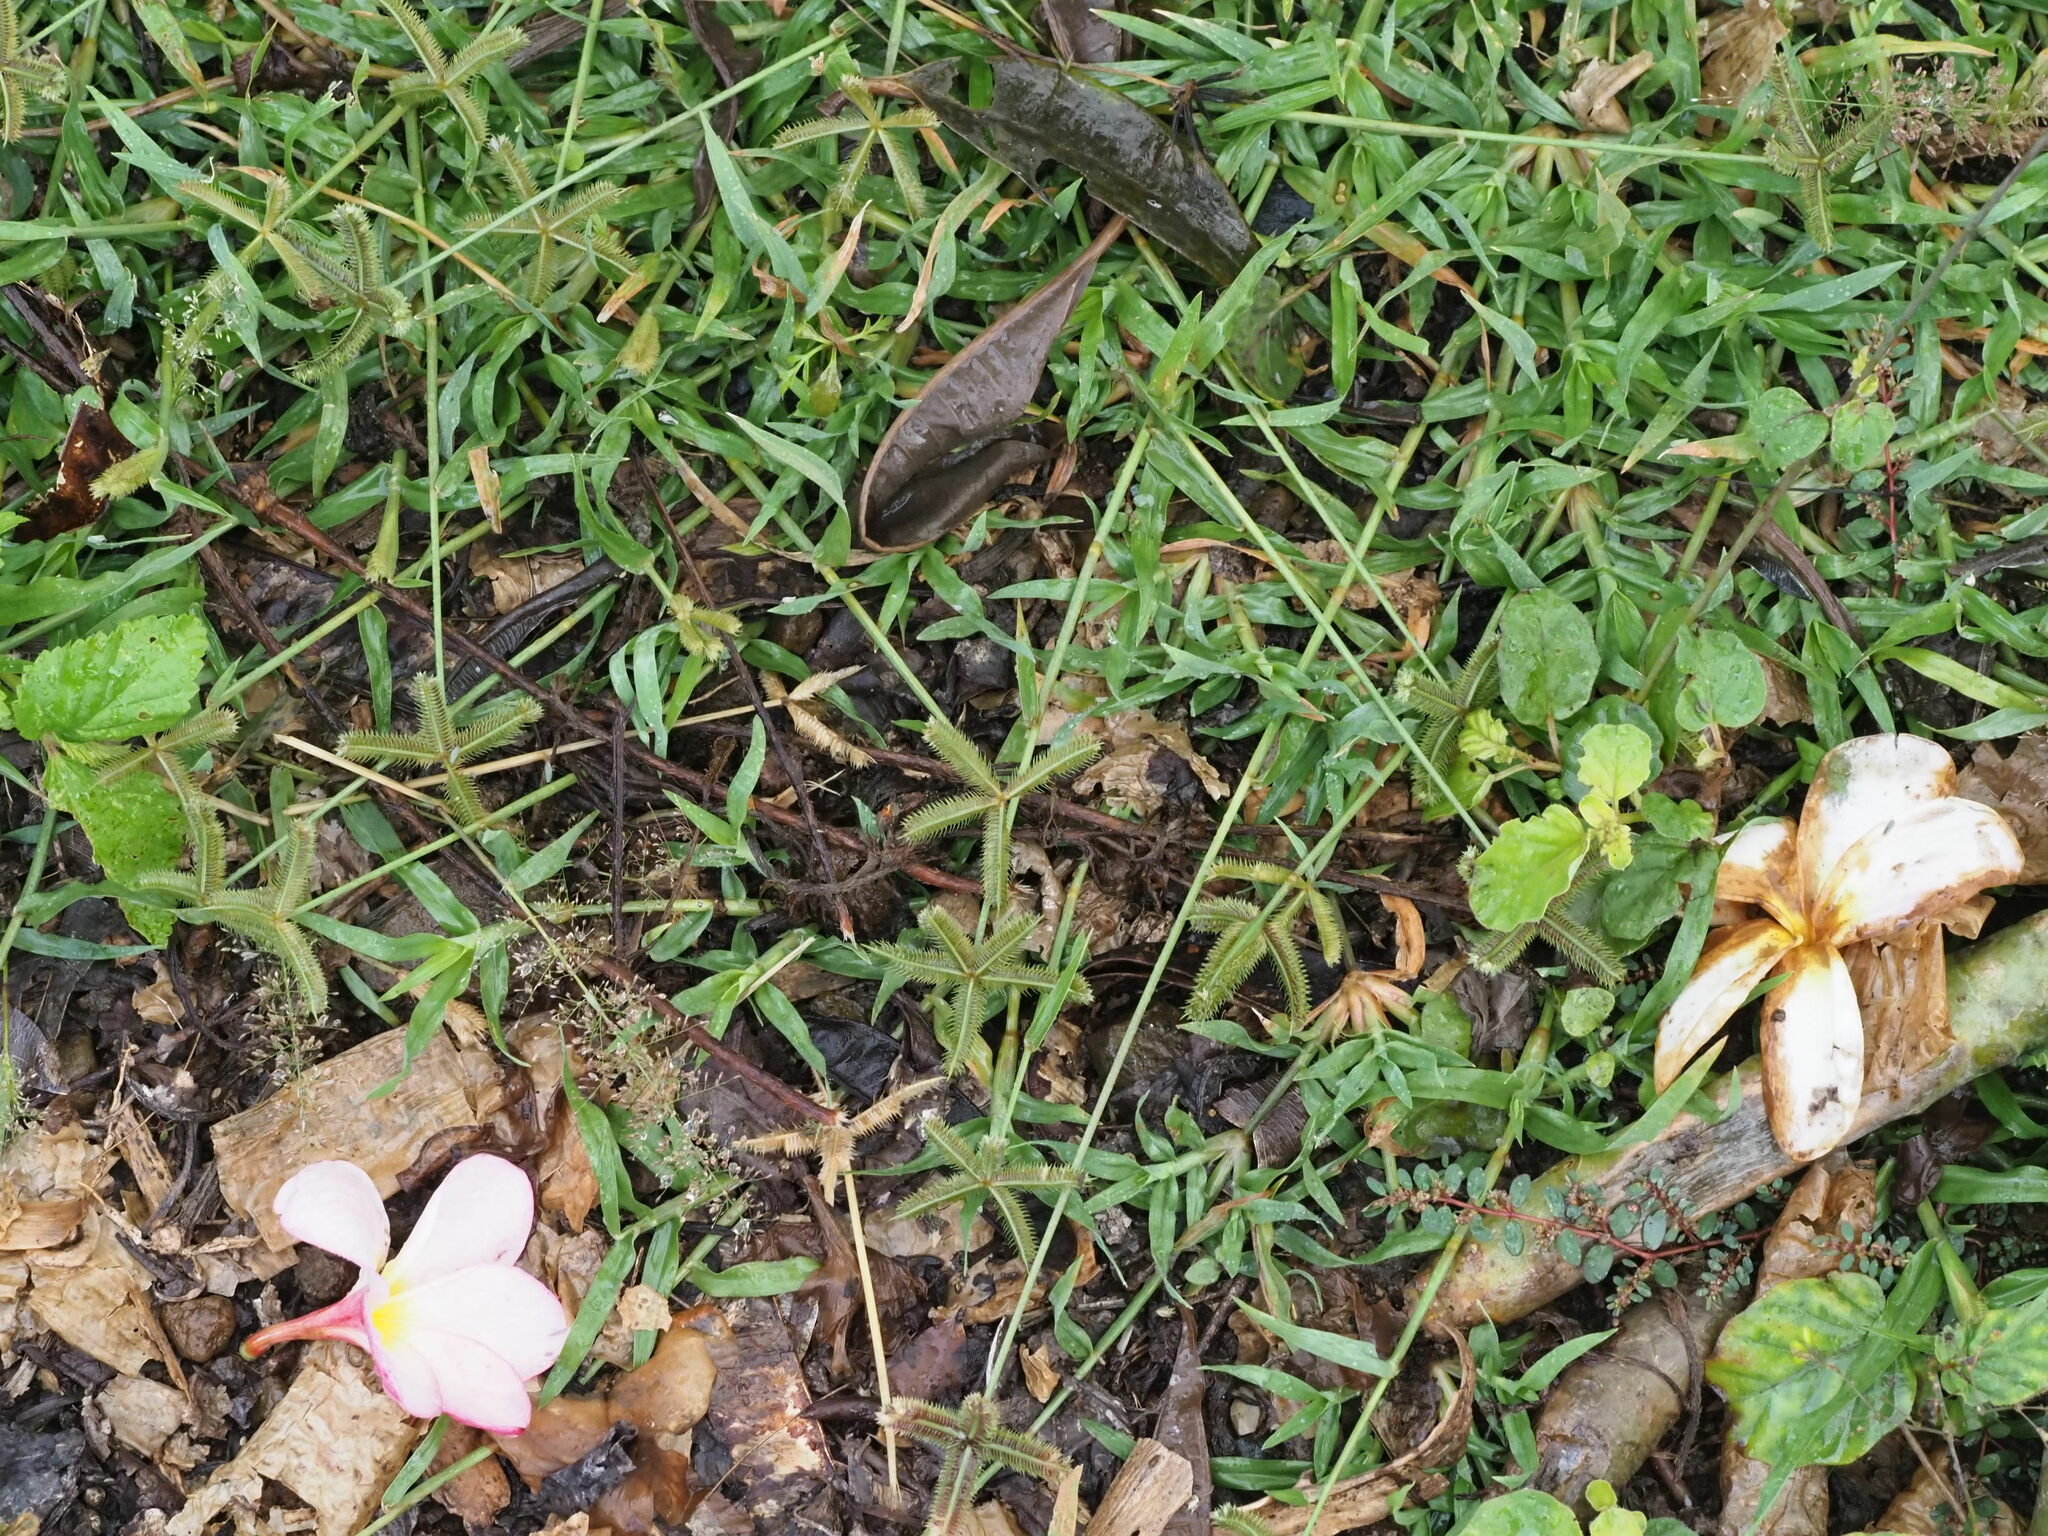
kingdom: Plantae
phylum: Tracheophyta
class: Liliopsida
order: Poales
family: Poaceae
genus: Dactyloctenium
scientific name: Dactyloctenium aegyptium
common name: Egyptian grass
